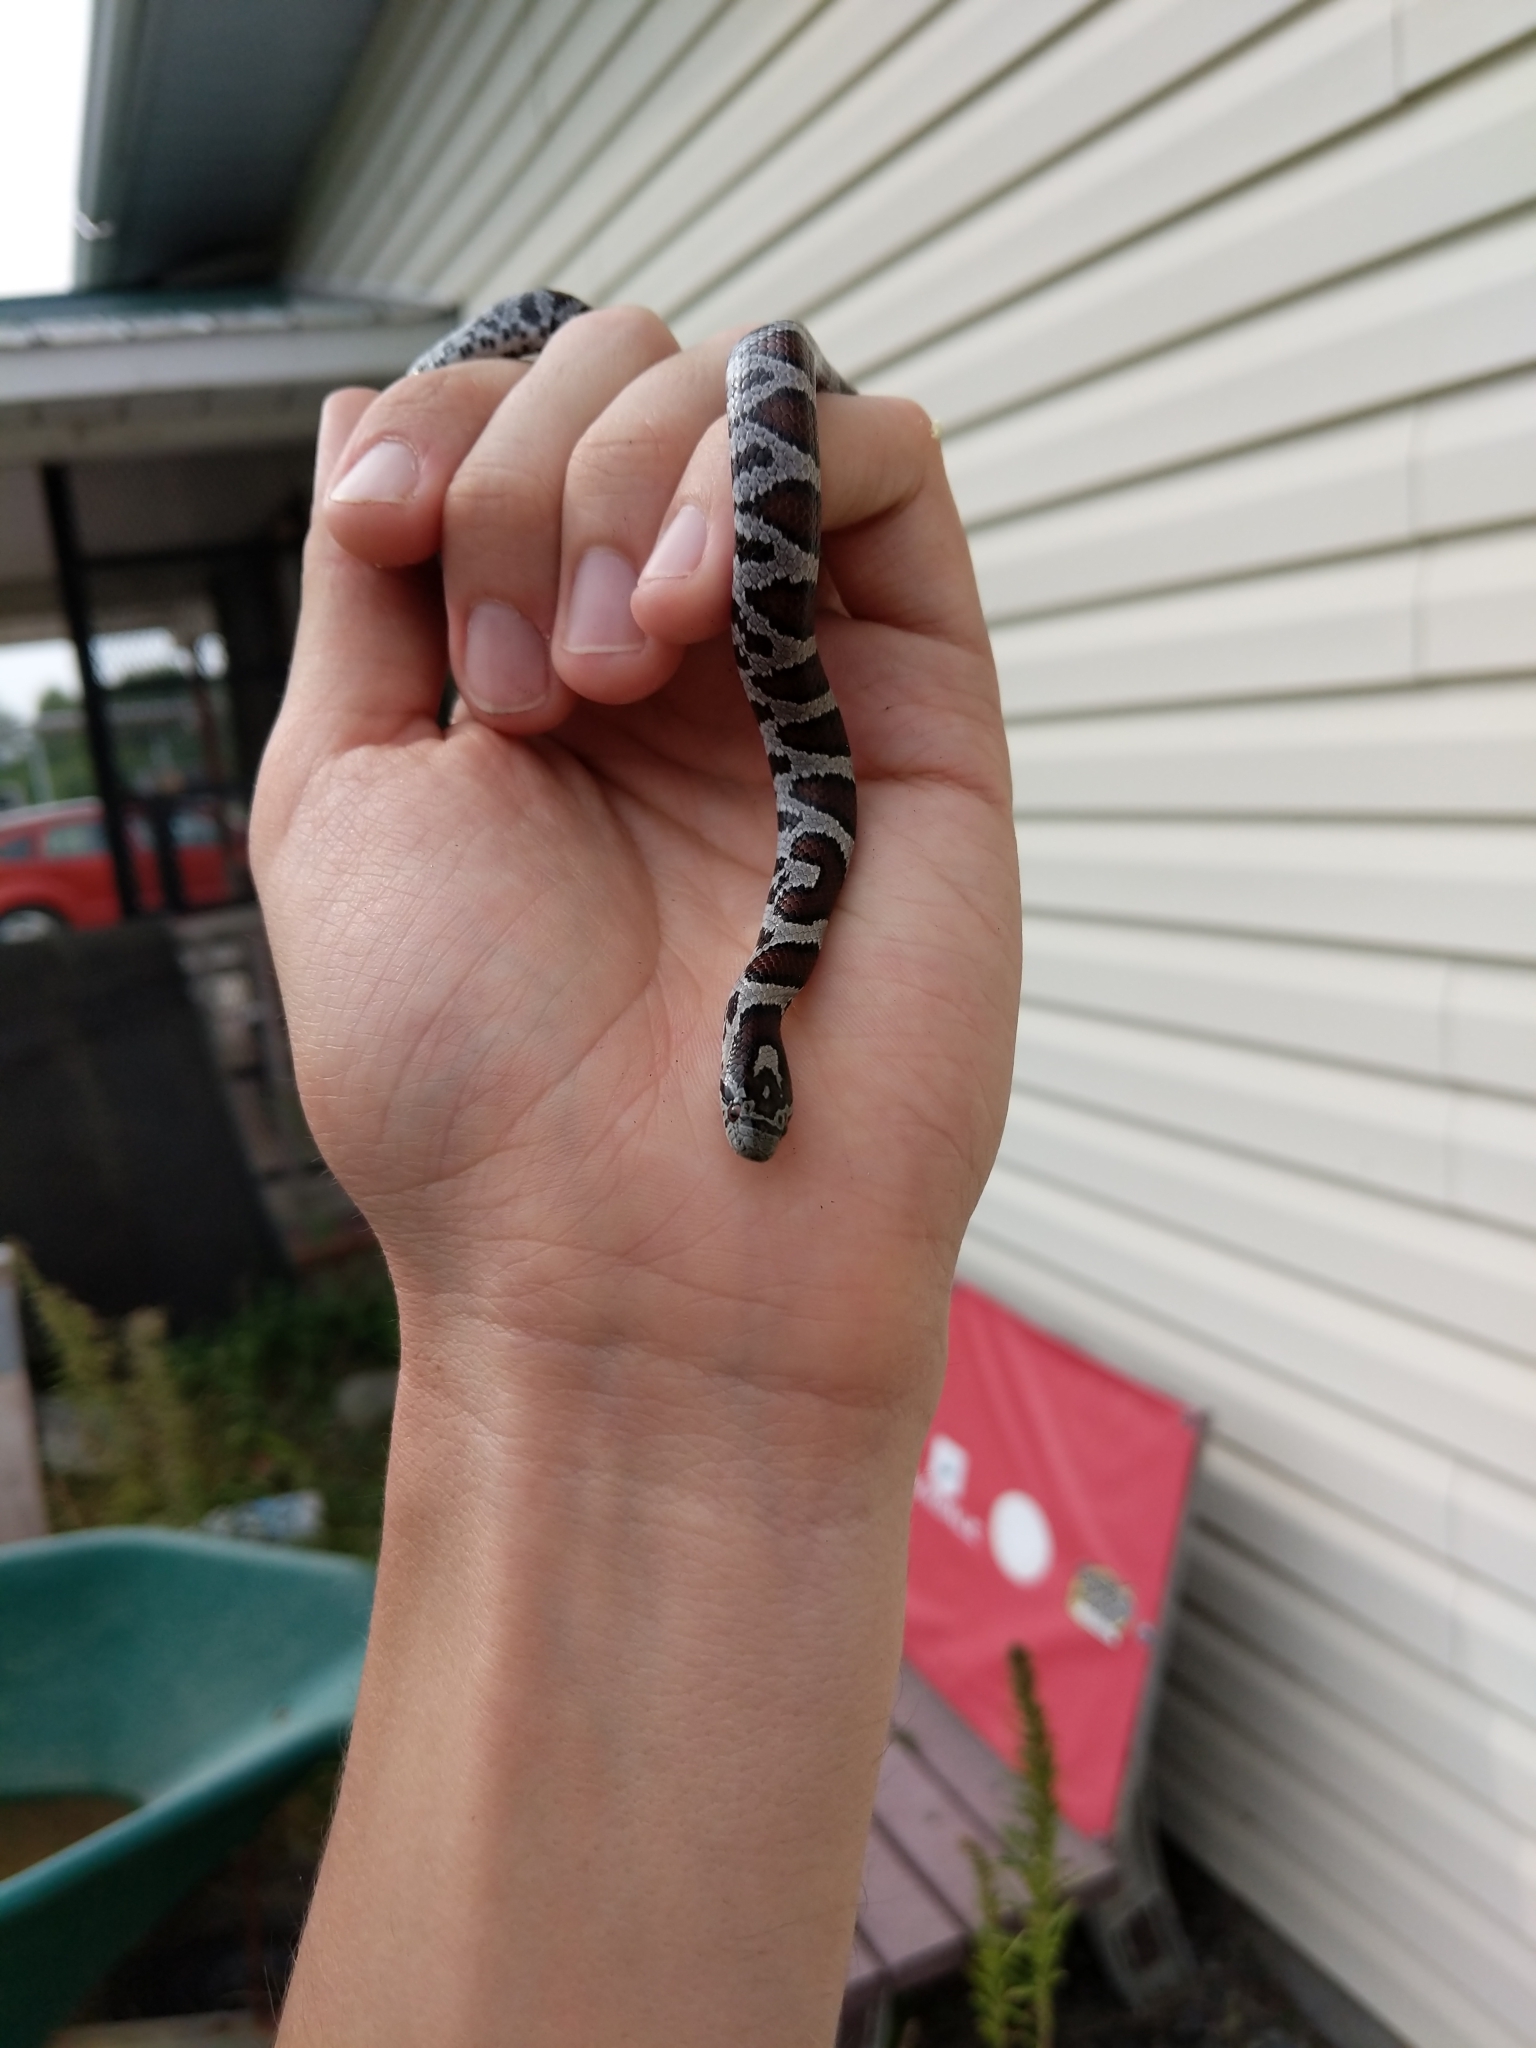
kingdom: Animalia
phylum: Chordata
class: Squamata
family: Colubridae
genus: Lampropeltis
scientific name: Lampropeltis triangulum
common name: Eastern milksnake
